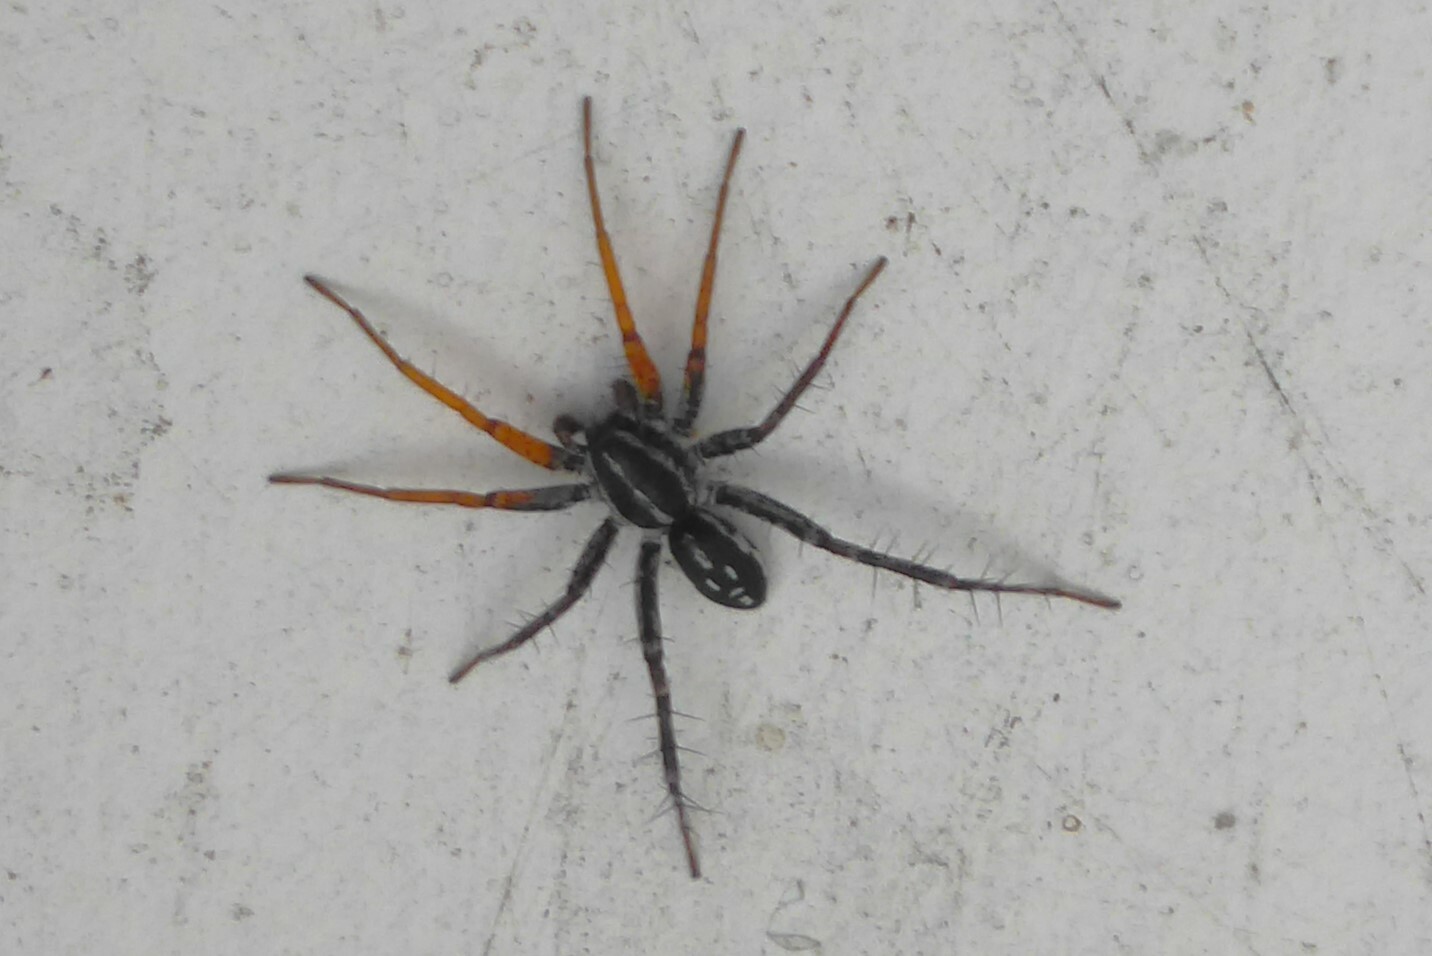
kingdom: Animalia
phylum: Arthropoda
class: Arachnida
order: Araneae
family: Corinnidae
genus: Nyssus
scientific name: Nyssus coloripes
